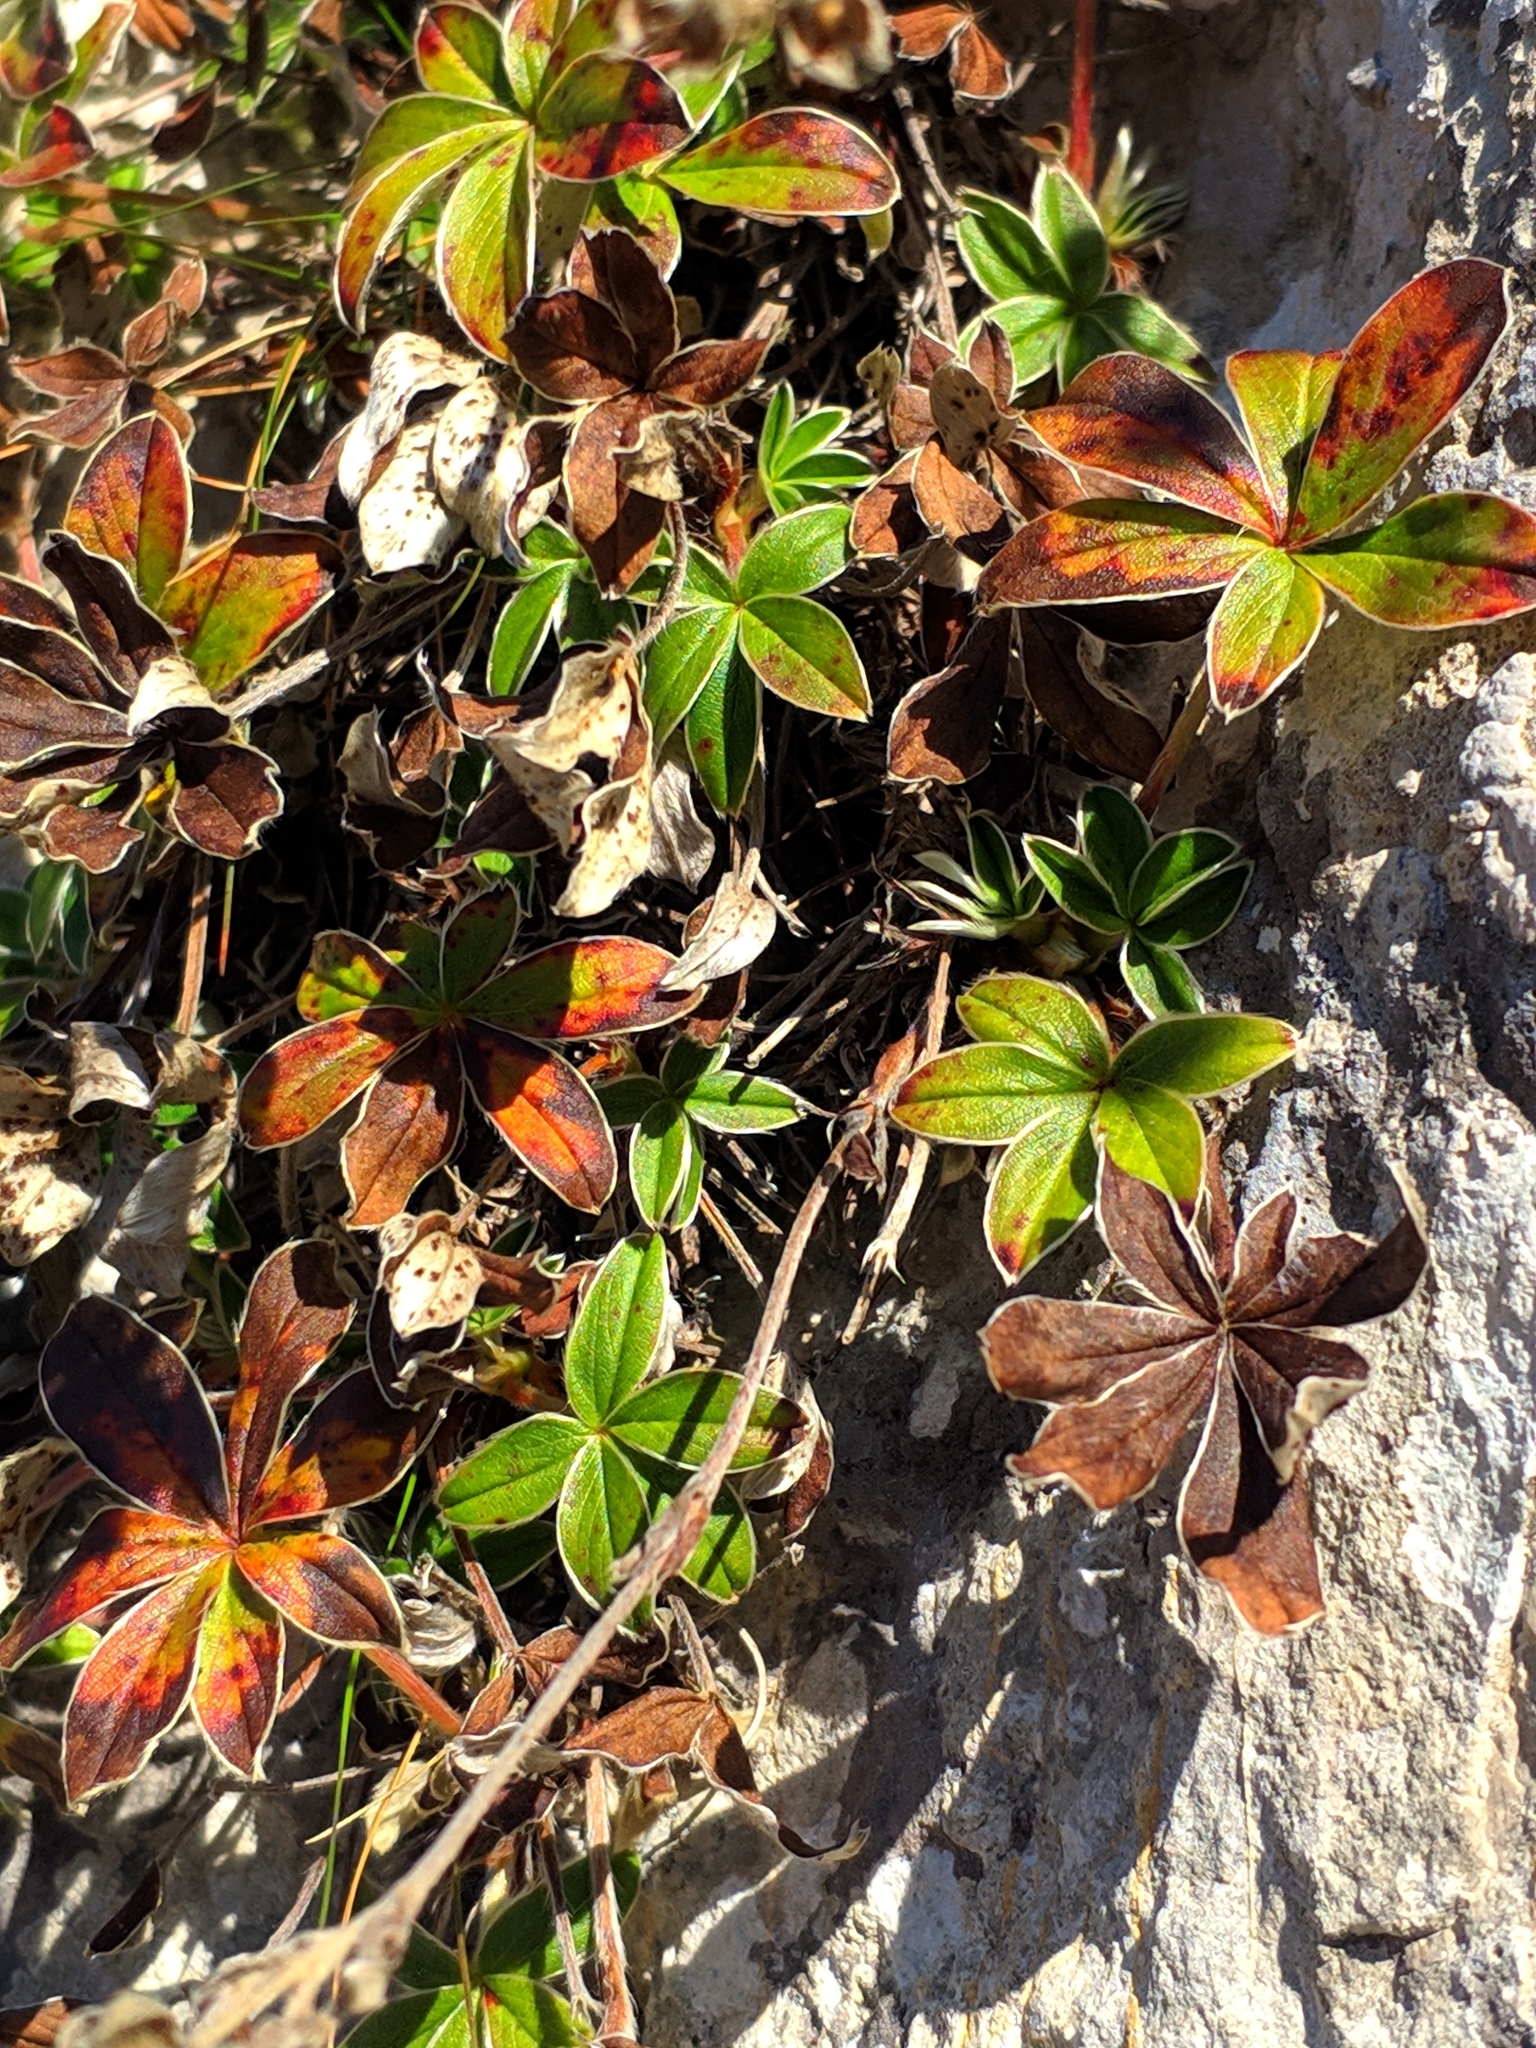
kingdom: Plantae
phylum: Tracheophyta
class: Magnoliopsida
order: Rosales
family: Rosaceae
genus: Potentilla
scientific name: Potentilla alchimilloides
